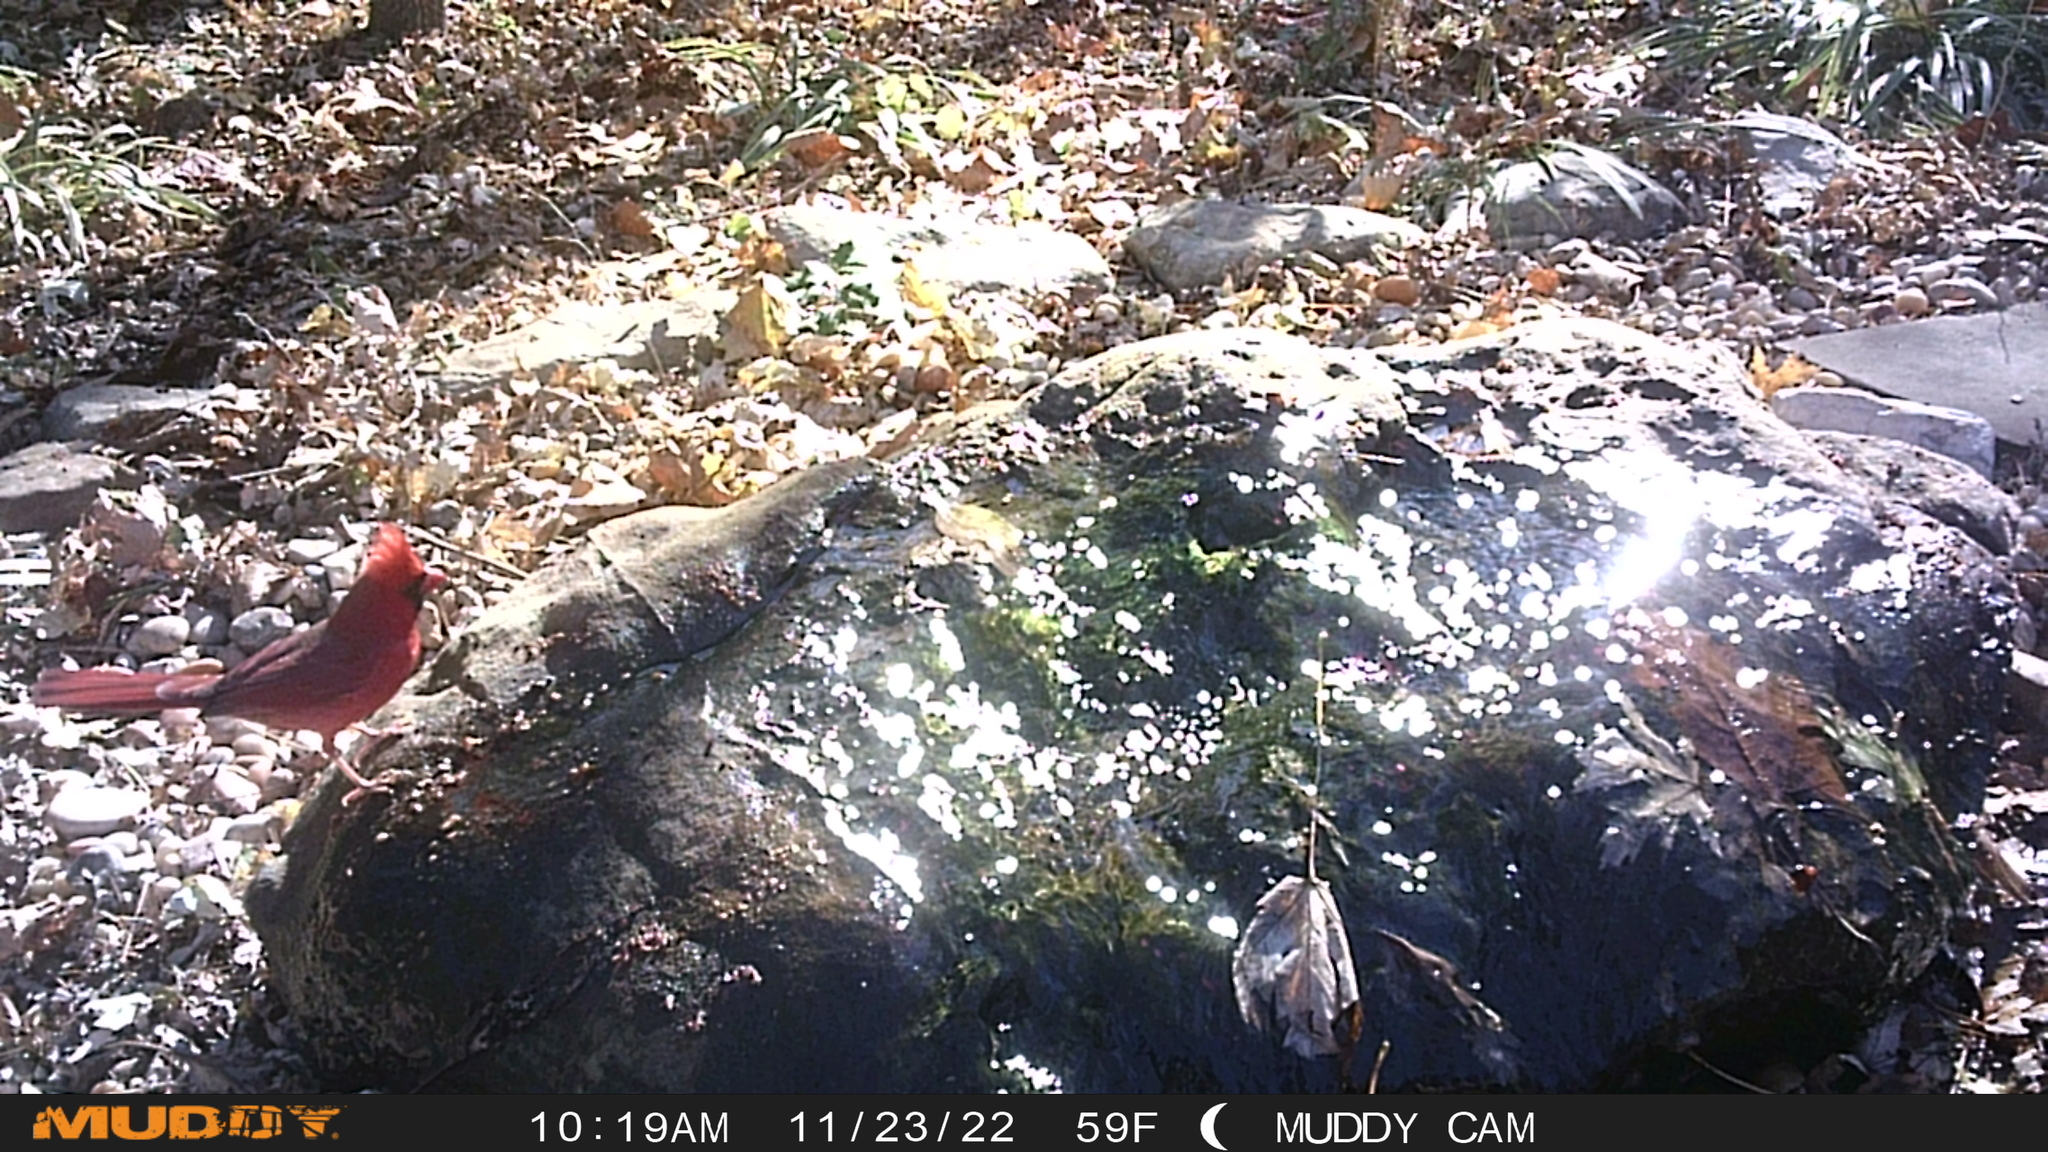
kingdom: Animalia
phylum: Chordata
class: Aves
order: Passeriformes
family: Cardinalidae
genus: Cardinalis
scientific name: Cardinalis cardinalis
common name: Northern cardinal
